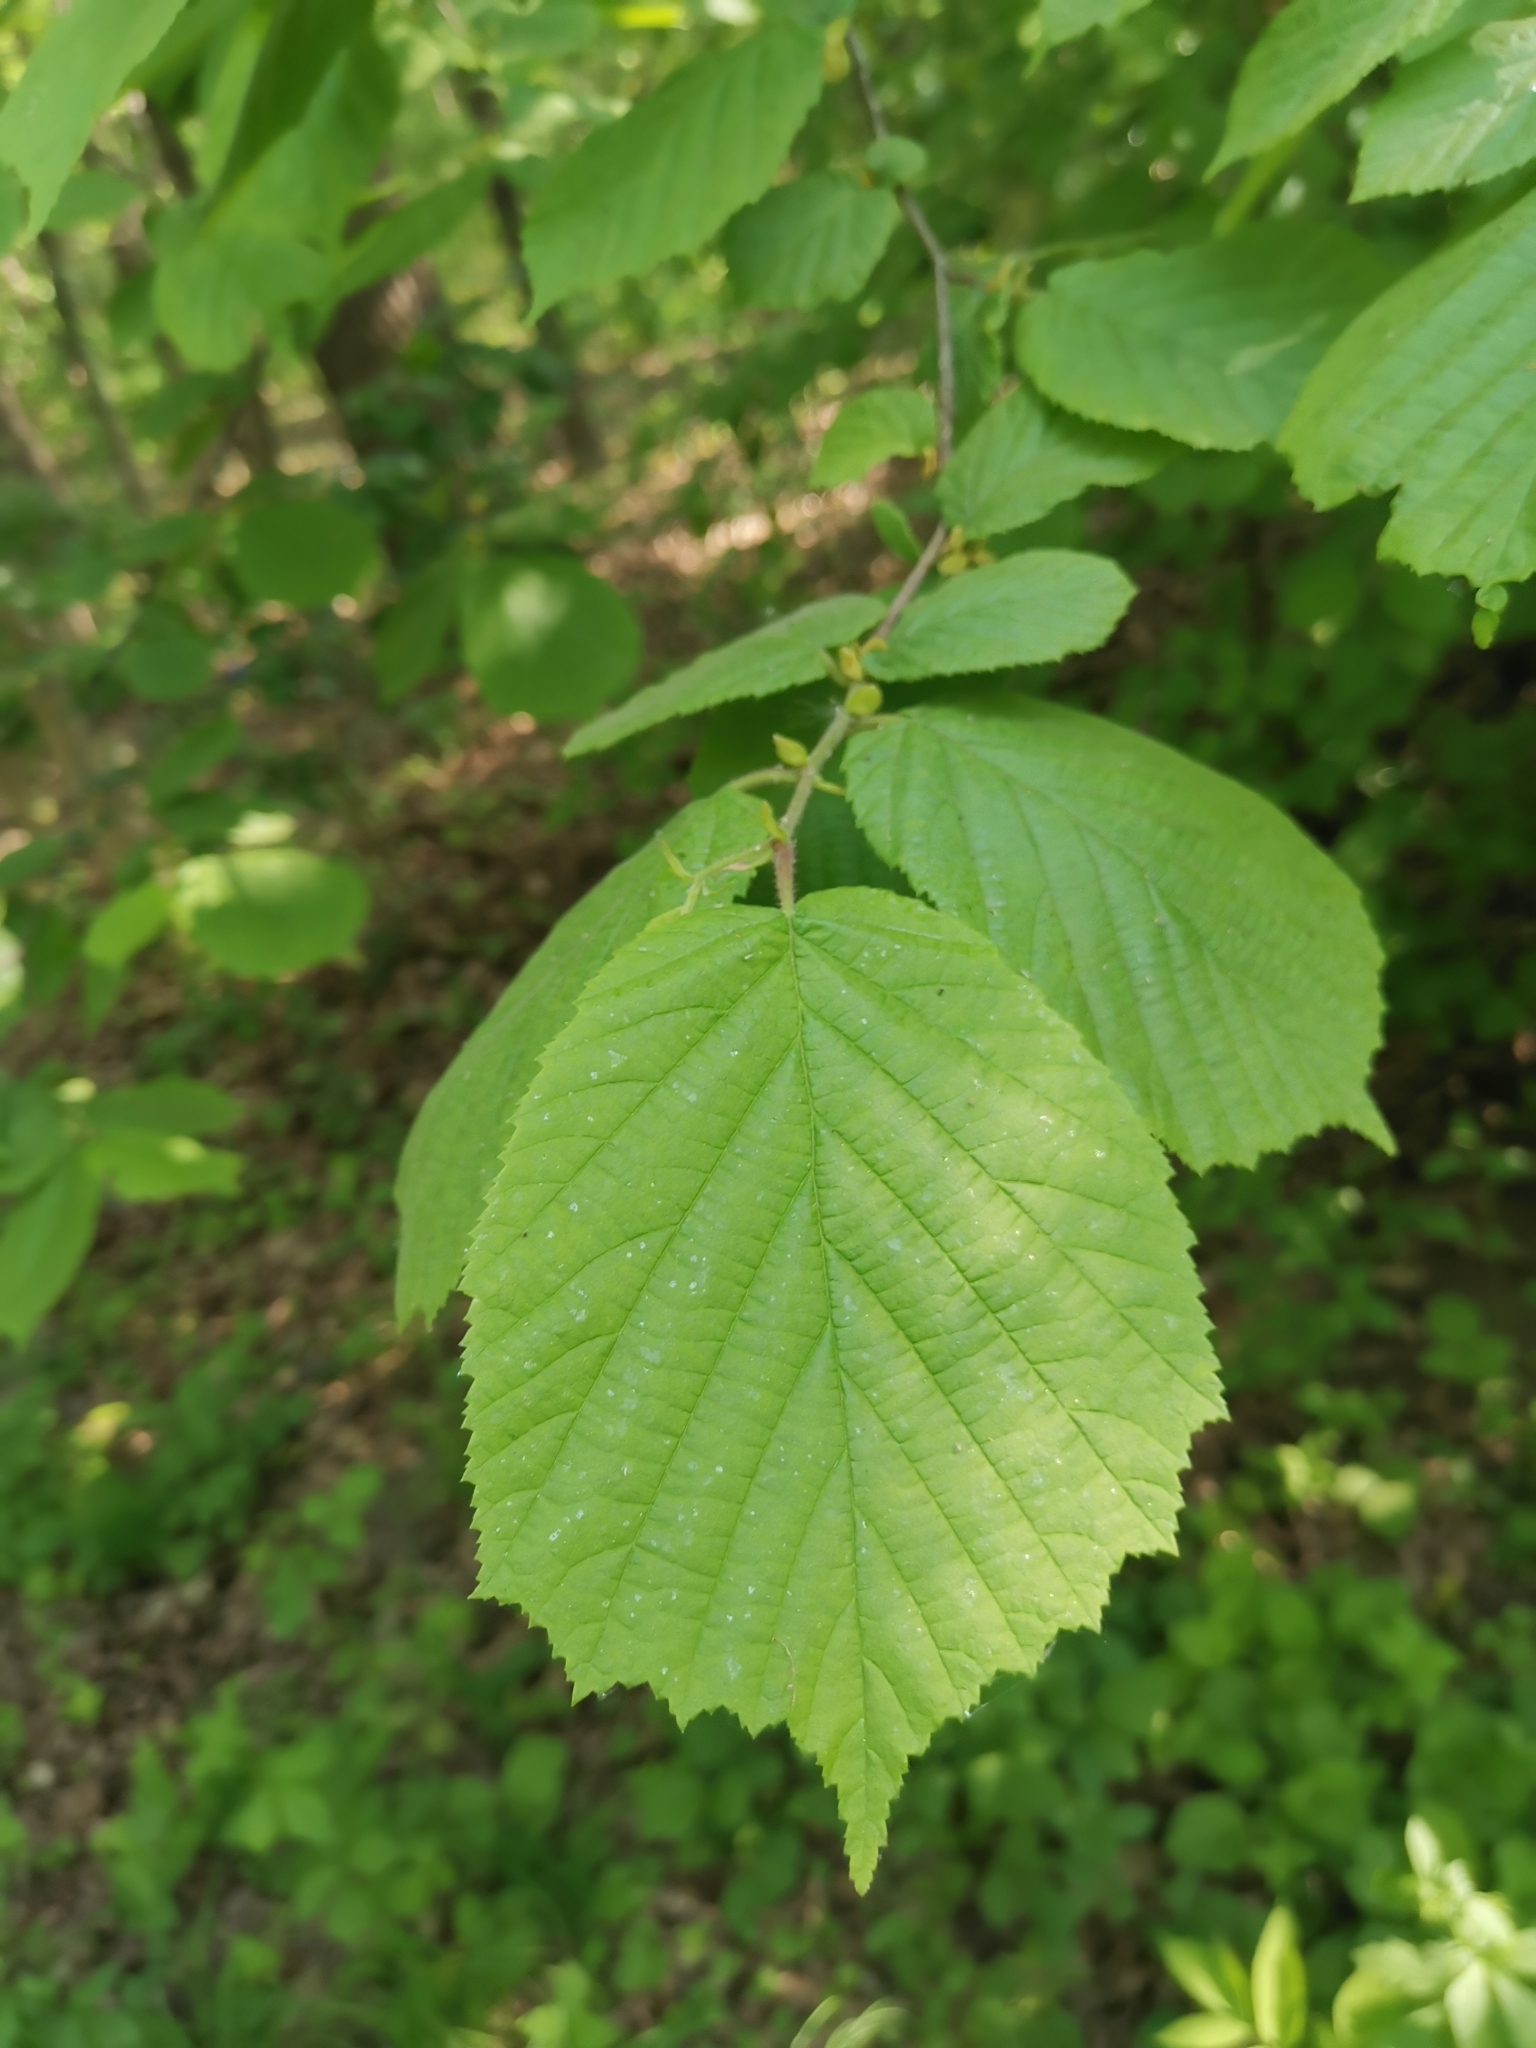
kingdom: Plantae
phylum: Tracheophyta
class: Magnoliopsida
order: Fagales
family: Betulaceae
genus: Corylus
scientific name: Corylus avellana
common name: European hazel
